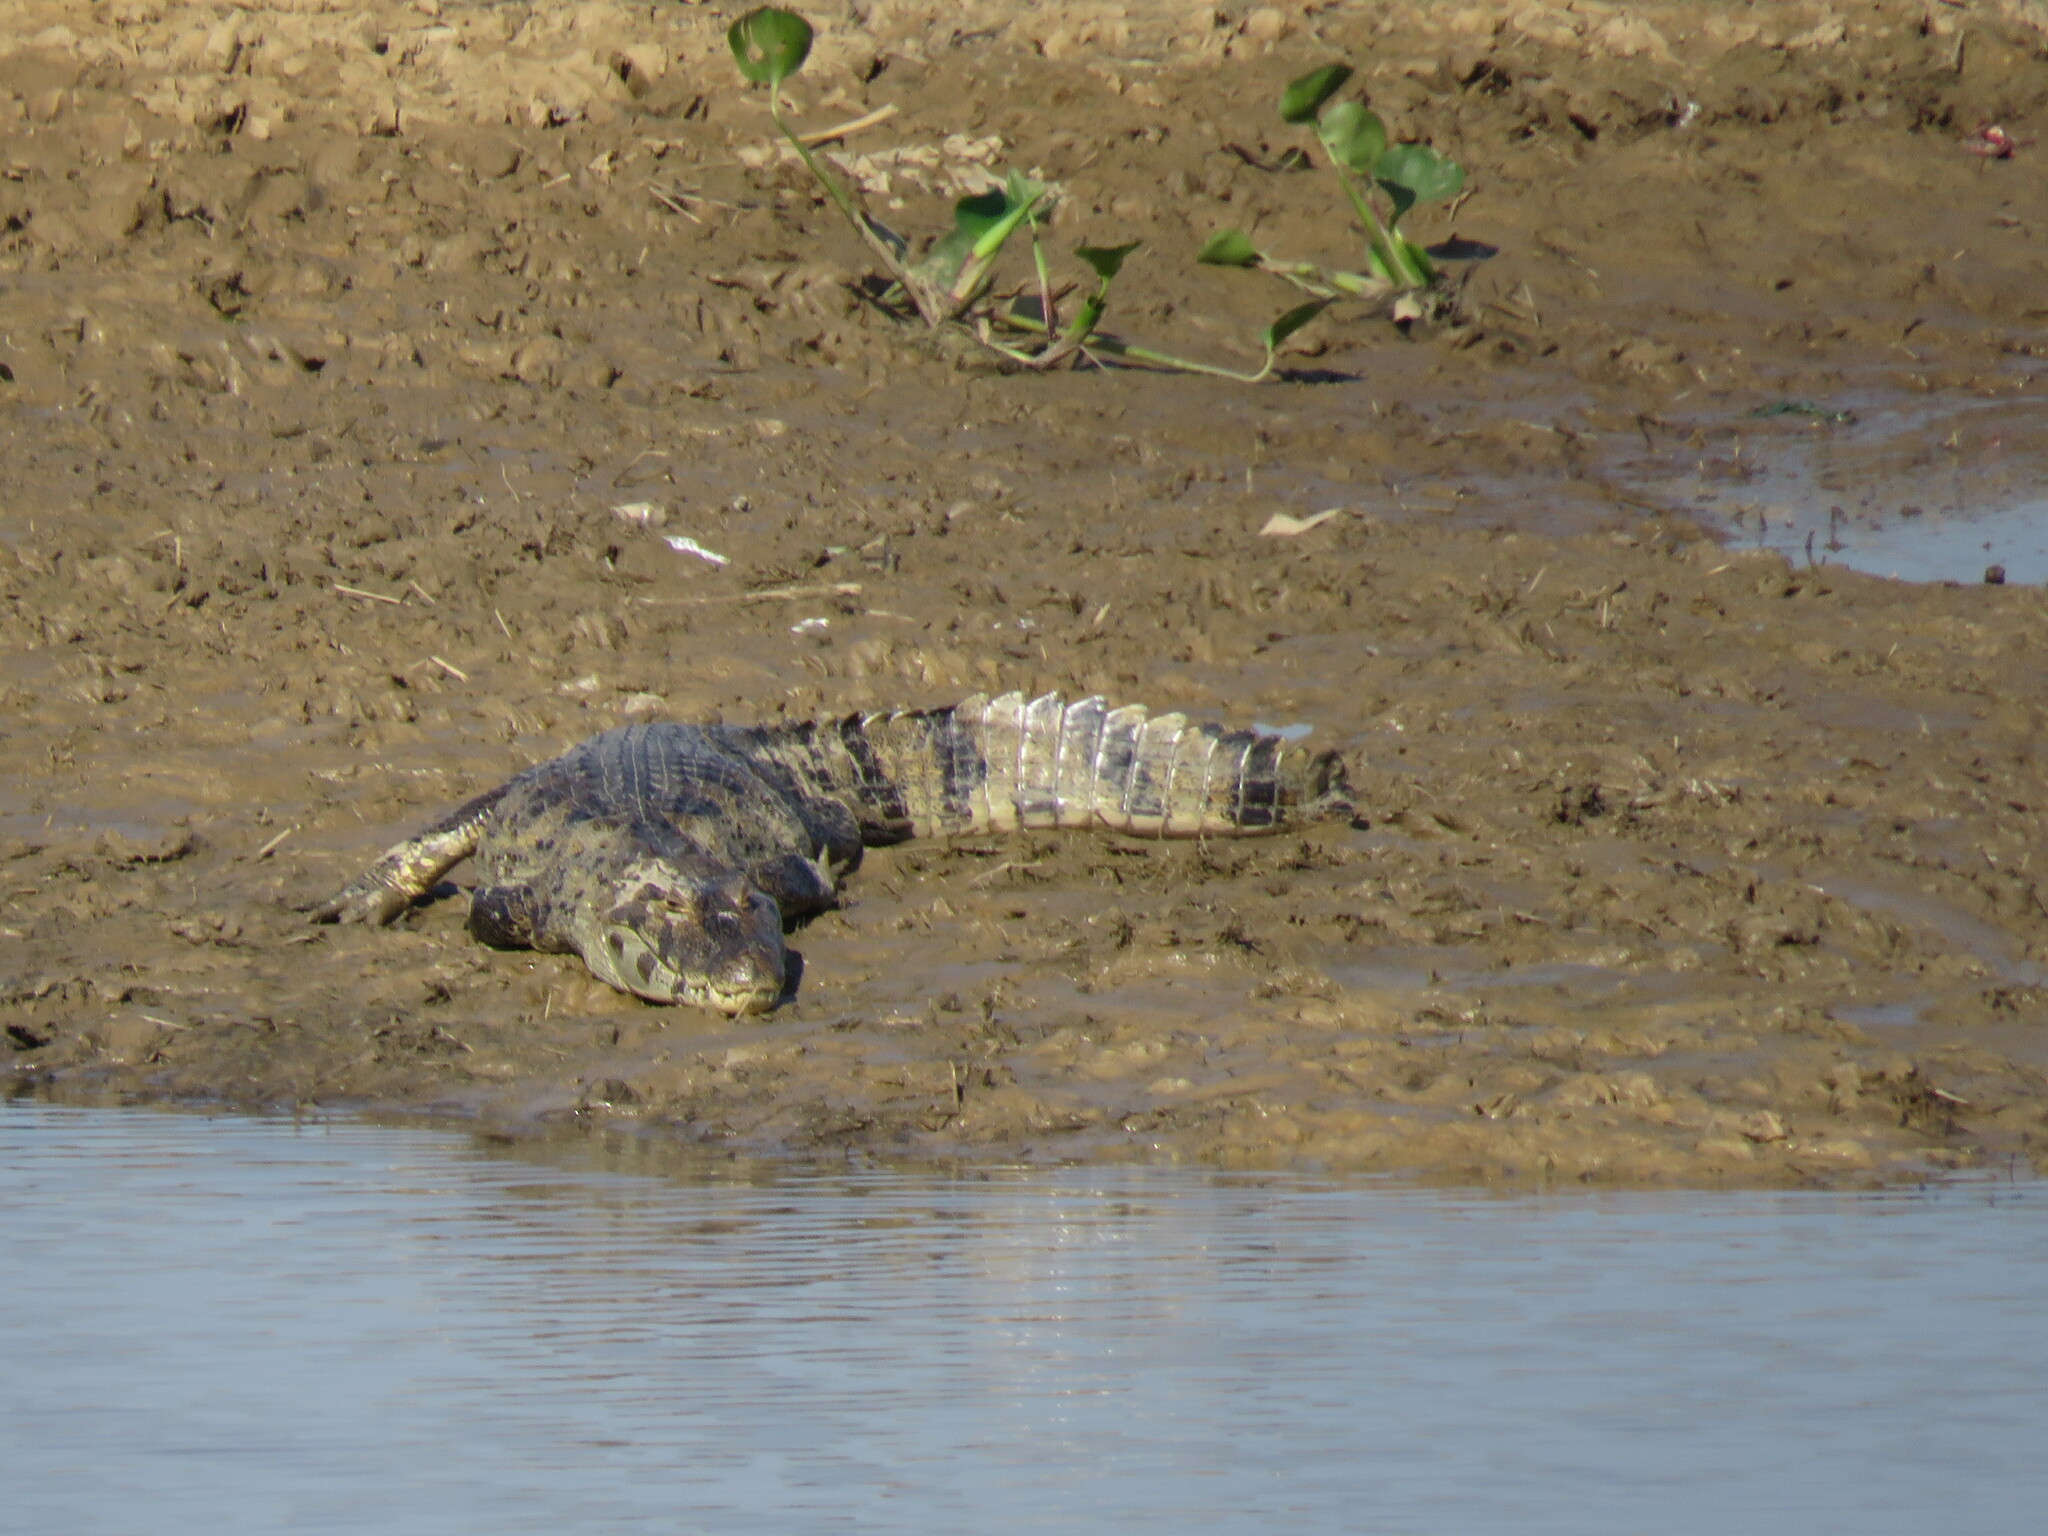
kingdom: Animalia
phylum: Chordata
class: Crocodylia
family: Alligatoridae
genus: Caiman
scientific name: Caiman yacare
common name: Yacare caiman
